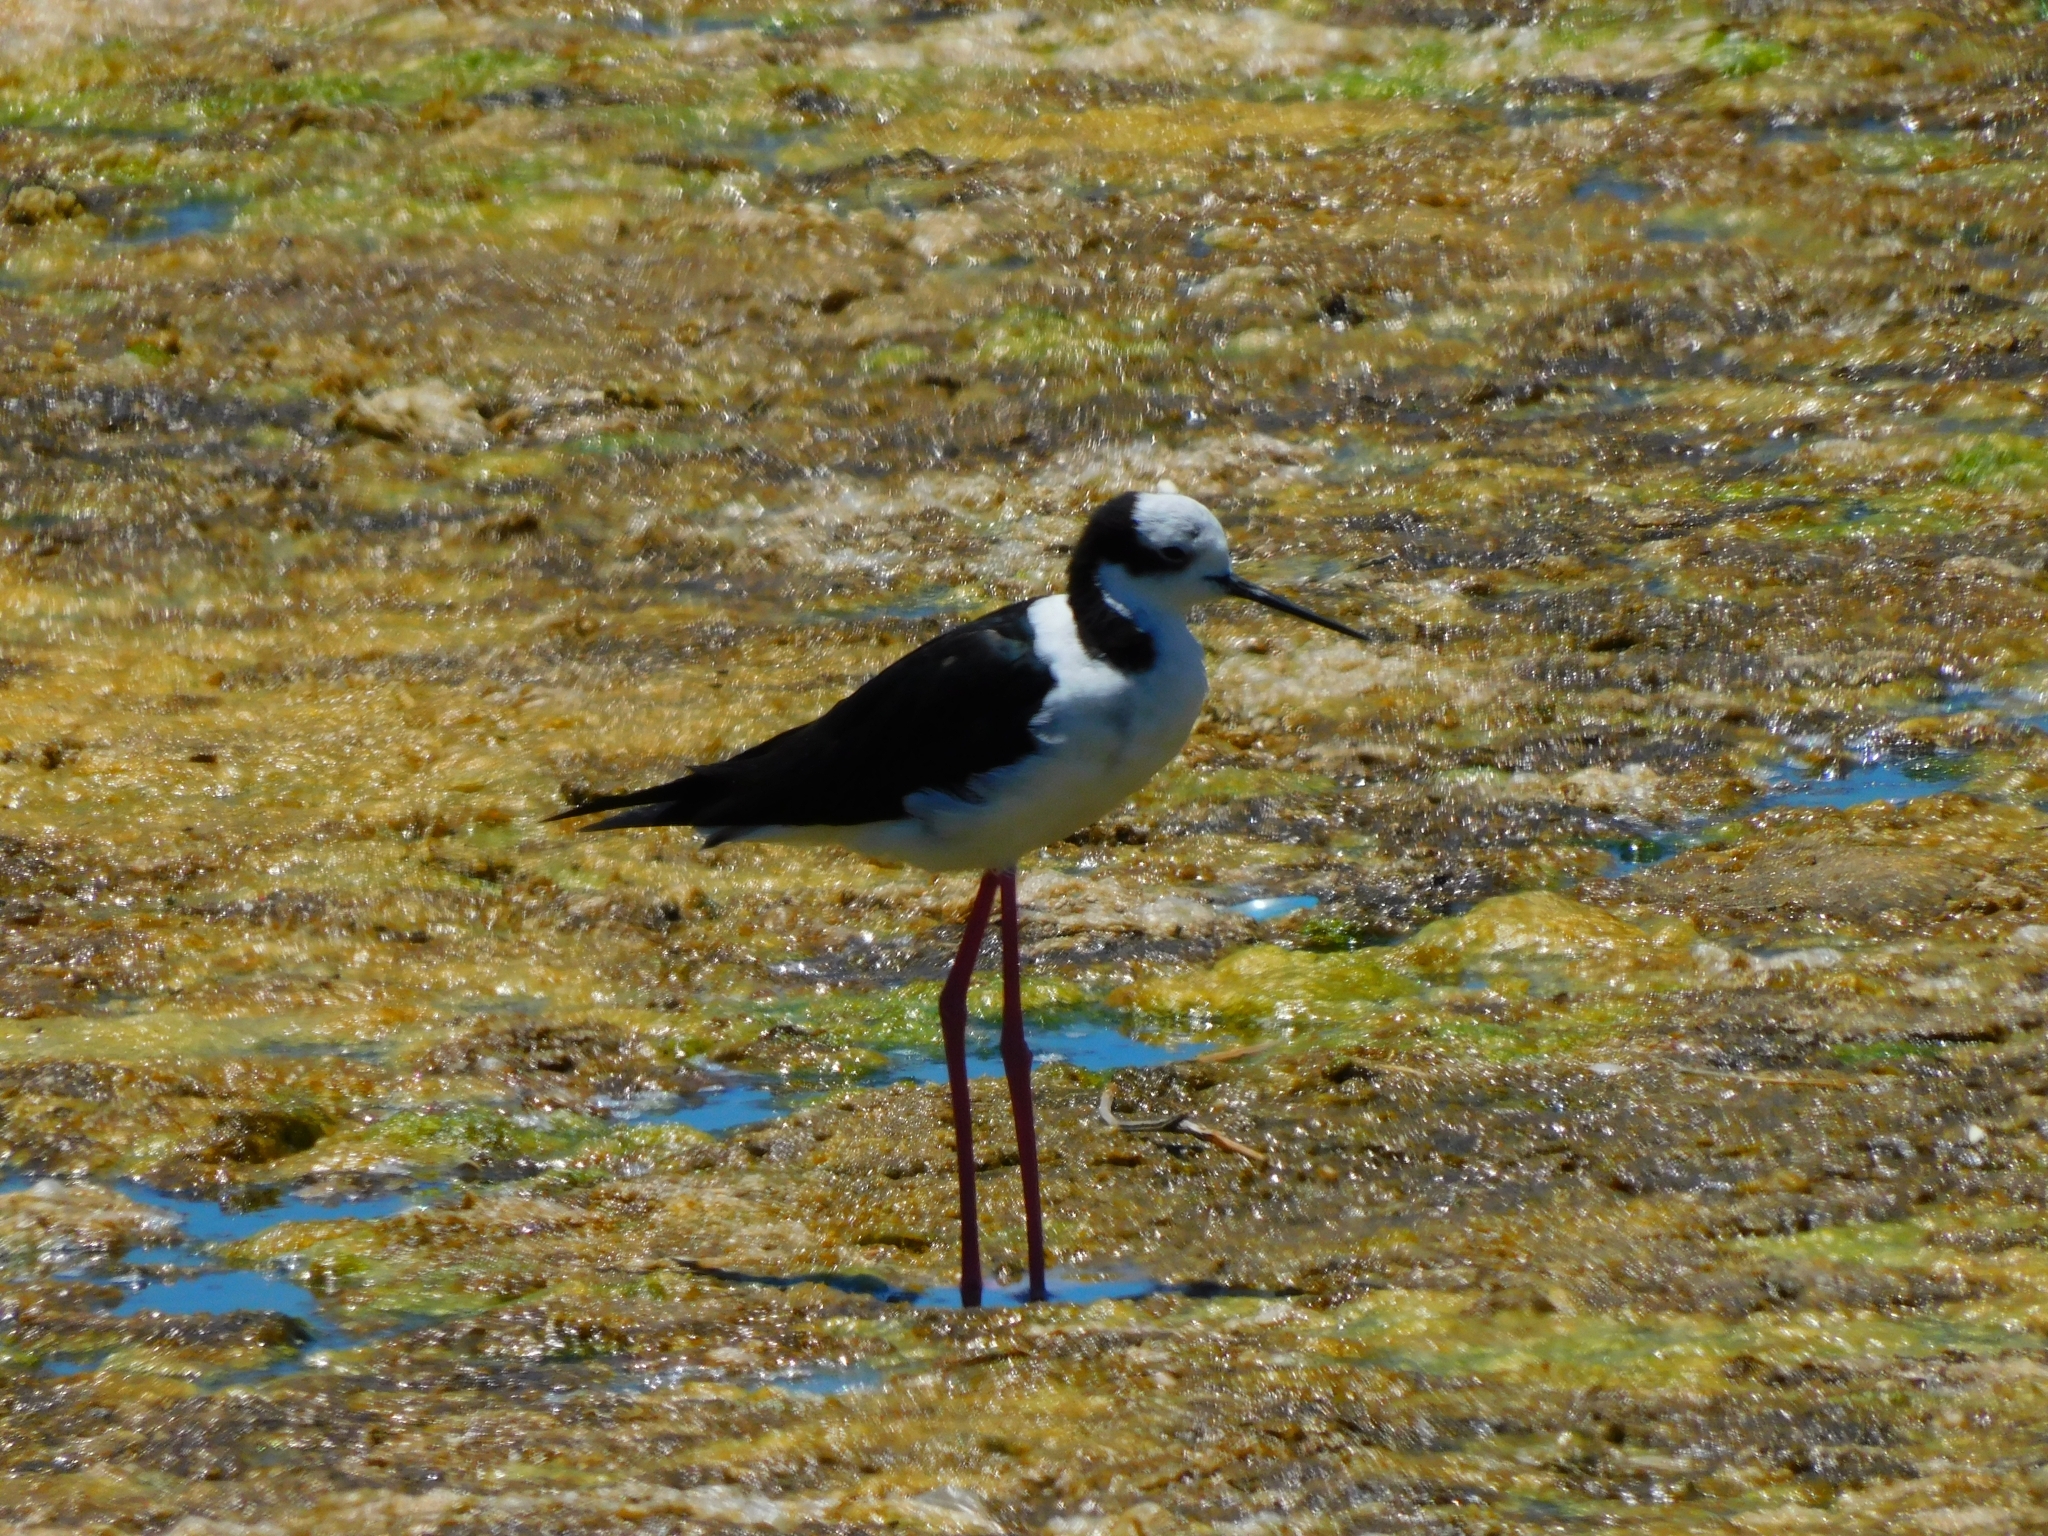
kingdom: Animalia
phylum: Chordata
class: Aves
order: Charadriiformes
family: Recurvirostridae
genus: Himantopus
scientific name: Himantopus mexicanus
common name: Black-necked stilt
